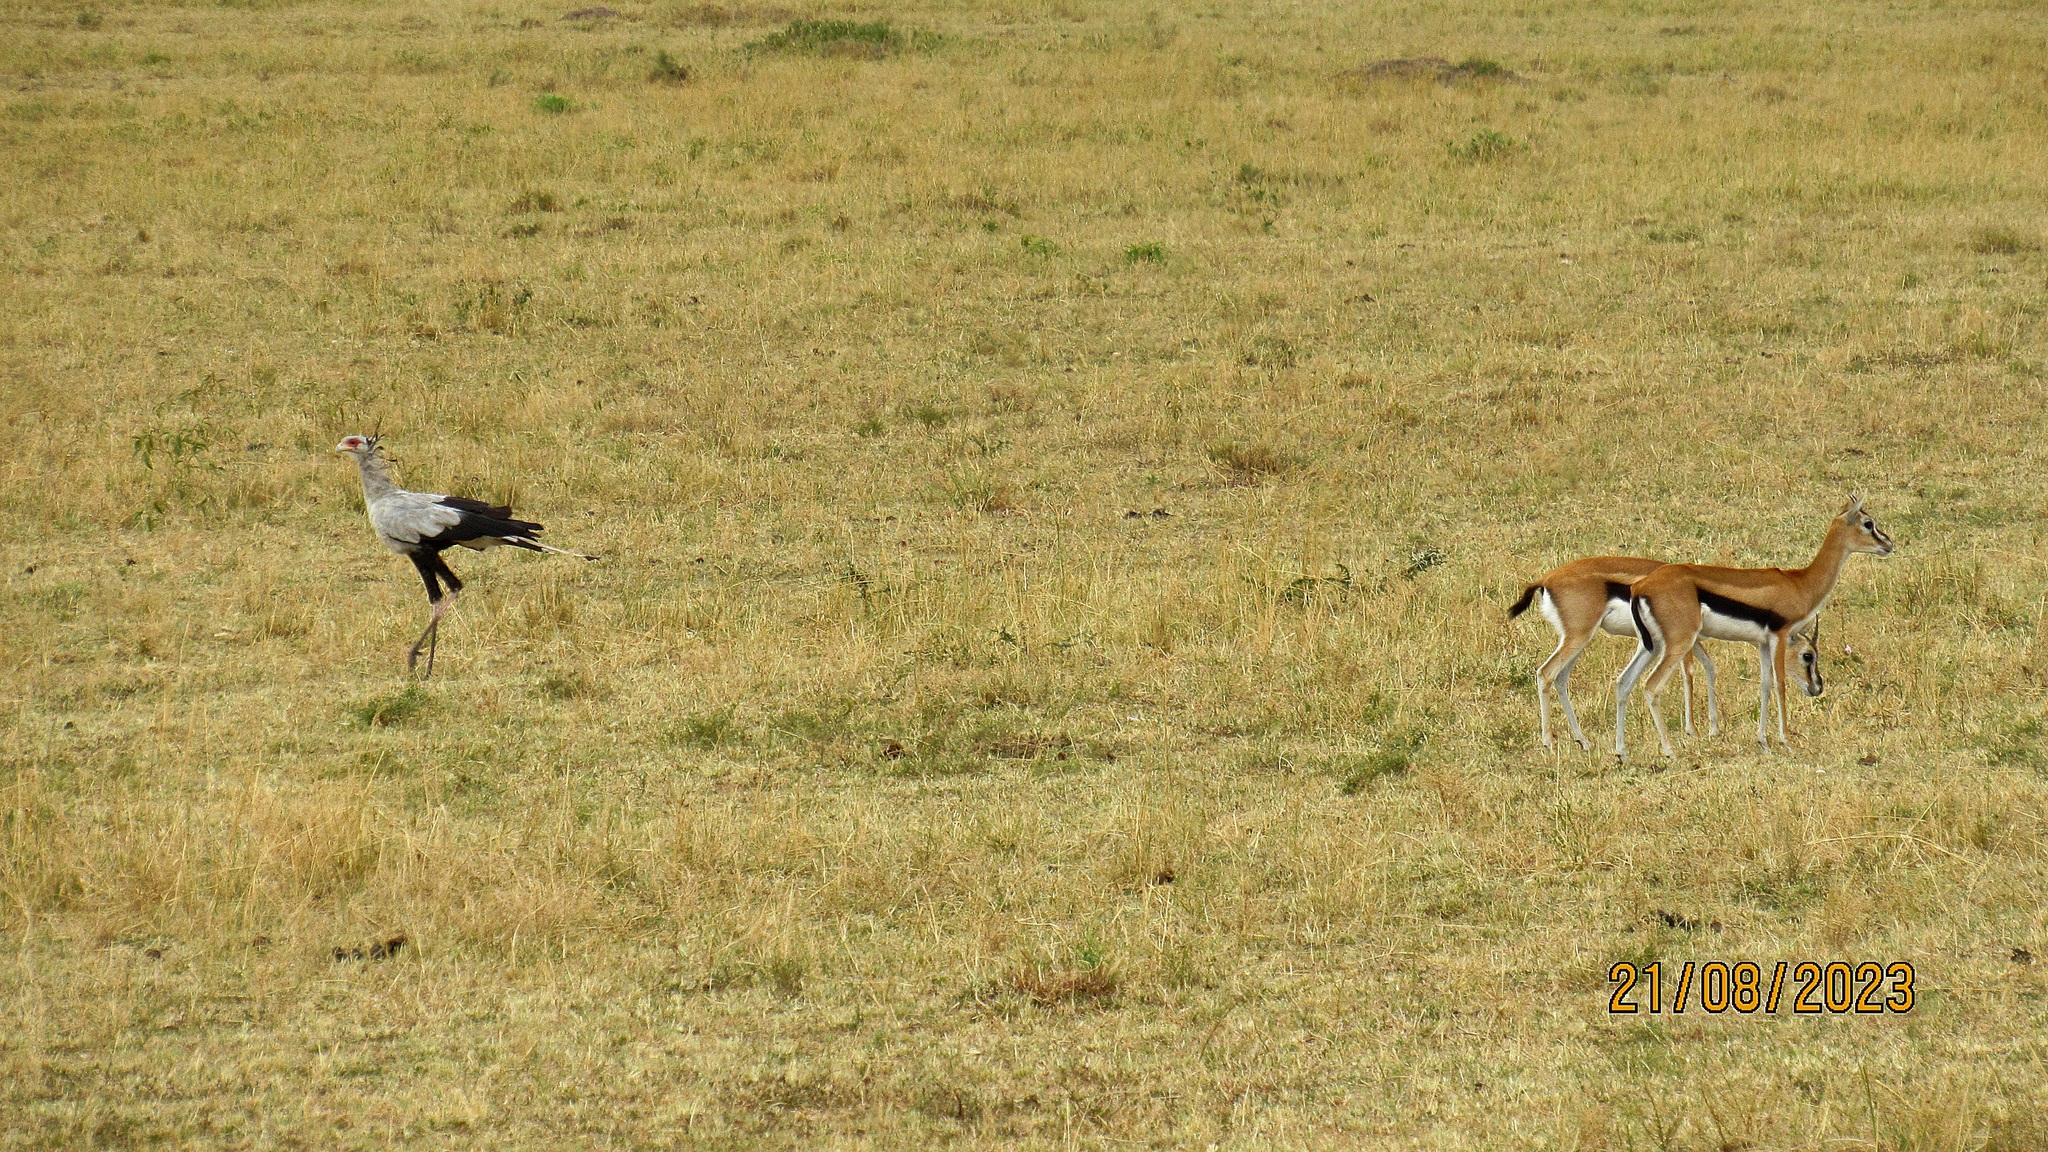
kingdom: Animalia
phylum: Chordata
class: Mammalia
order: Artiodactyla
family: Bovidae
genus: Eudorcas
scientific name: Eudorcas thomsonii
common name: Thomson's gazelle
